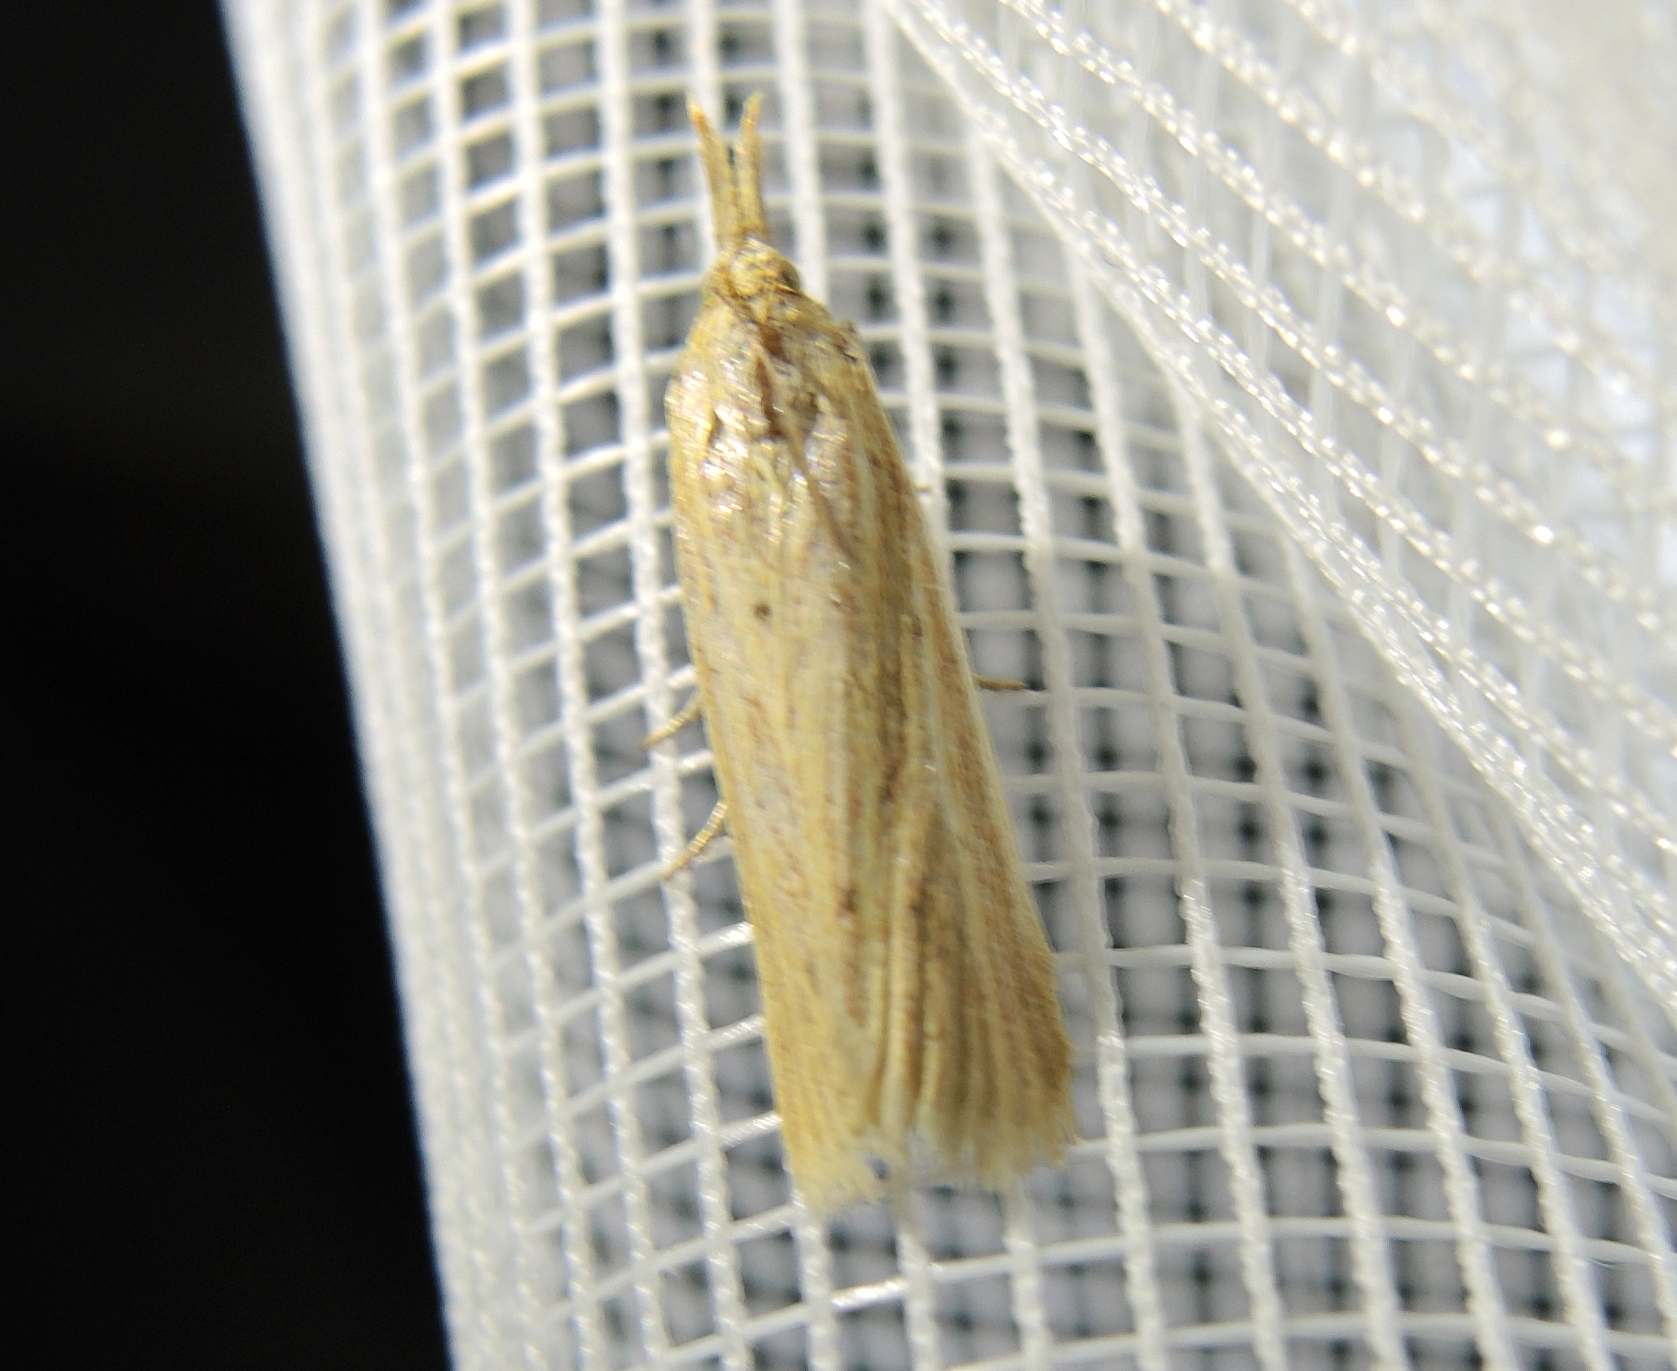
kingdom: Animalia
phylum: Arthropoda
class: Insecta
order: Lepidoptera
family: Pyralidae
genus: Ematheudes
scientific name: Ematheudes punctellus
